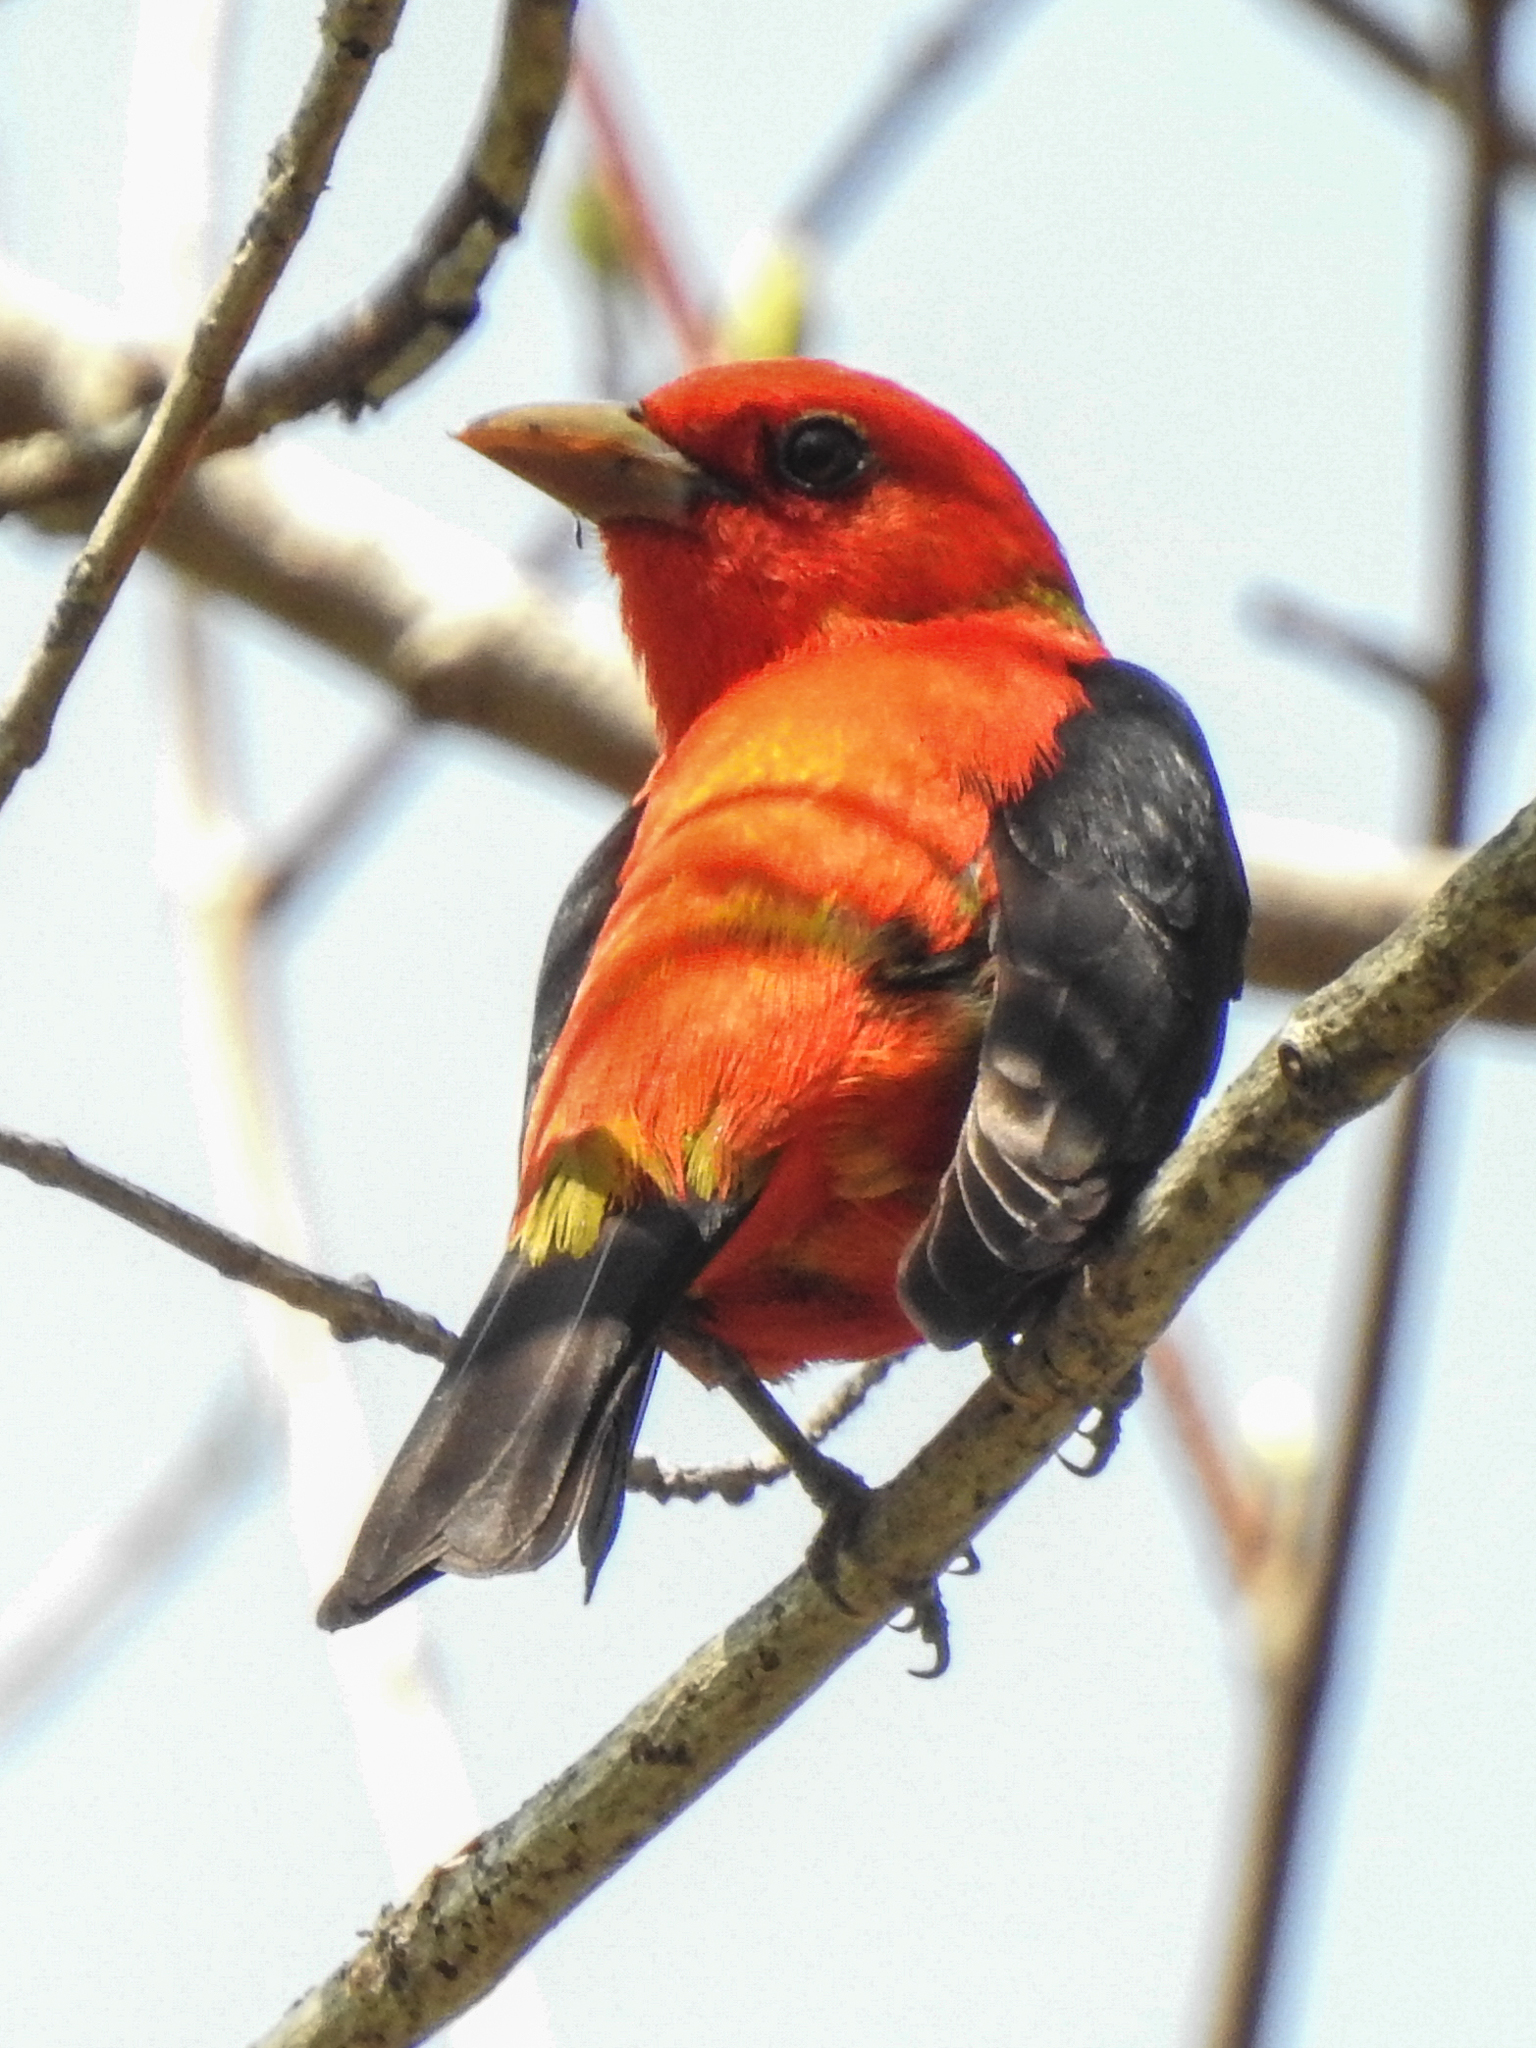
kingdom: Animalia
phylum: Chordata
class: Aves
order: Passeriformes
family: Cardinalidae
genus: Piranga
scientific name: Piranga olivacea
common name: Scarlet tanager
